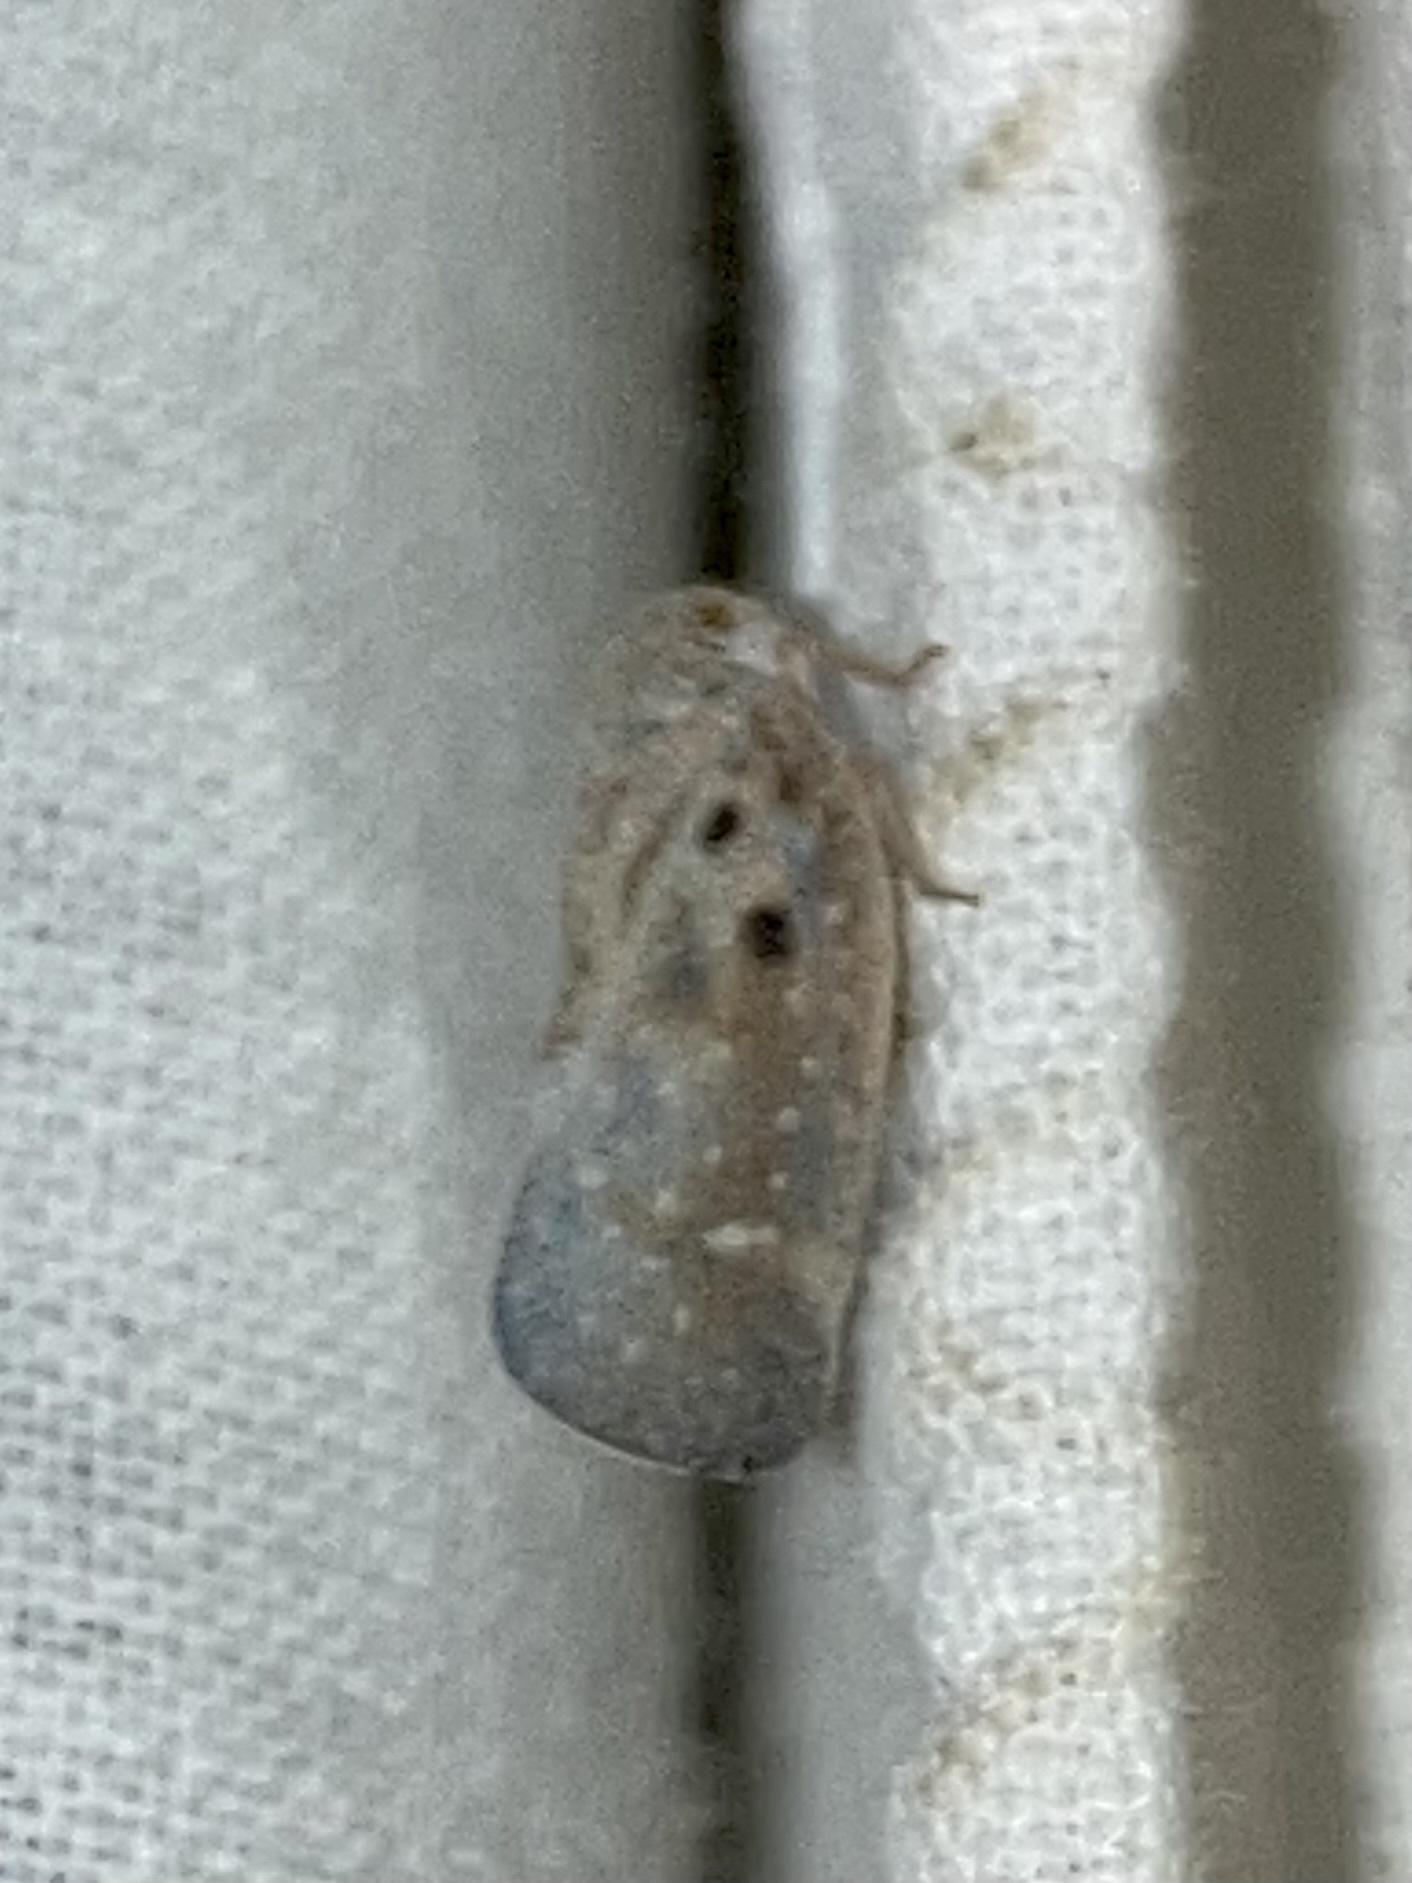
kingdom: Animalia
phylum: Arthropoda
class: Insecta
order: Hemiptera
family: Flatidae
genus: Metcalfa
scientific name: Metcalfa pruinosa
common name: Citrus flatid planthopper
